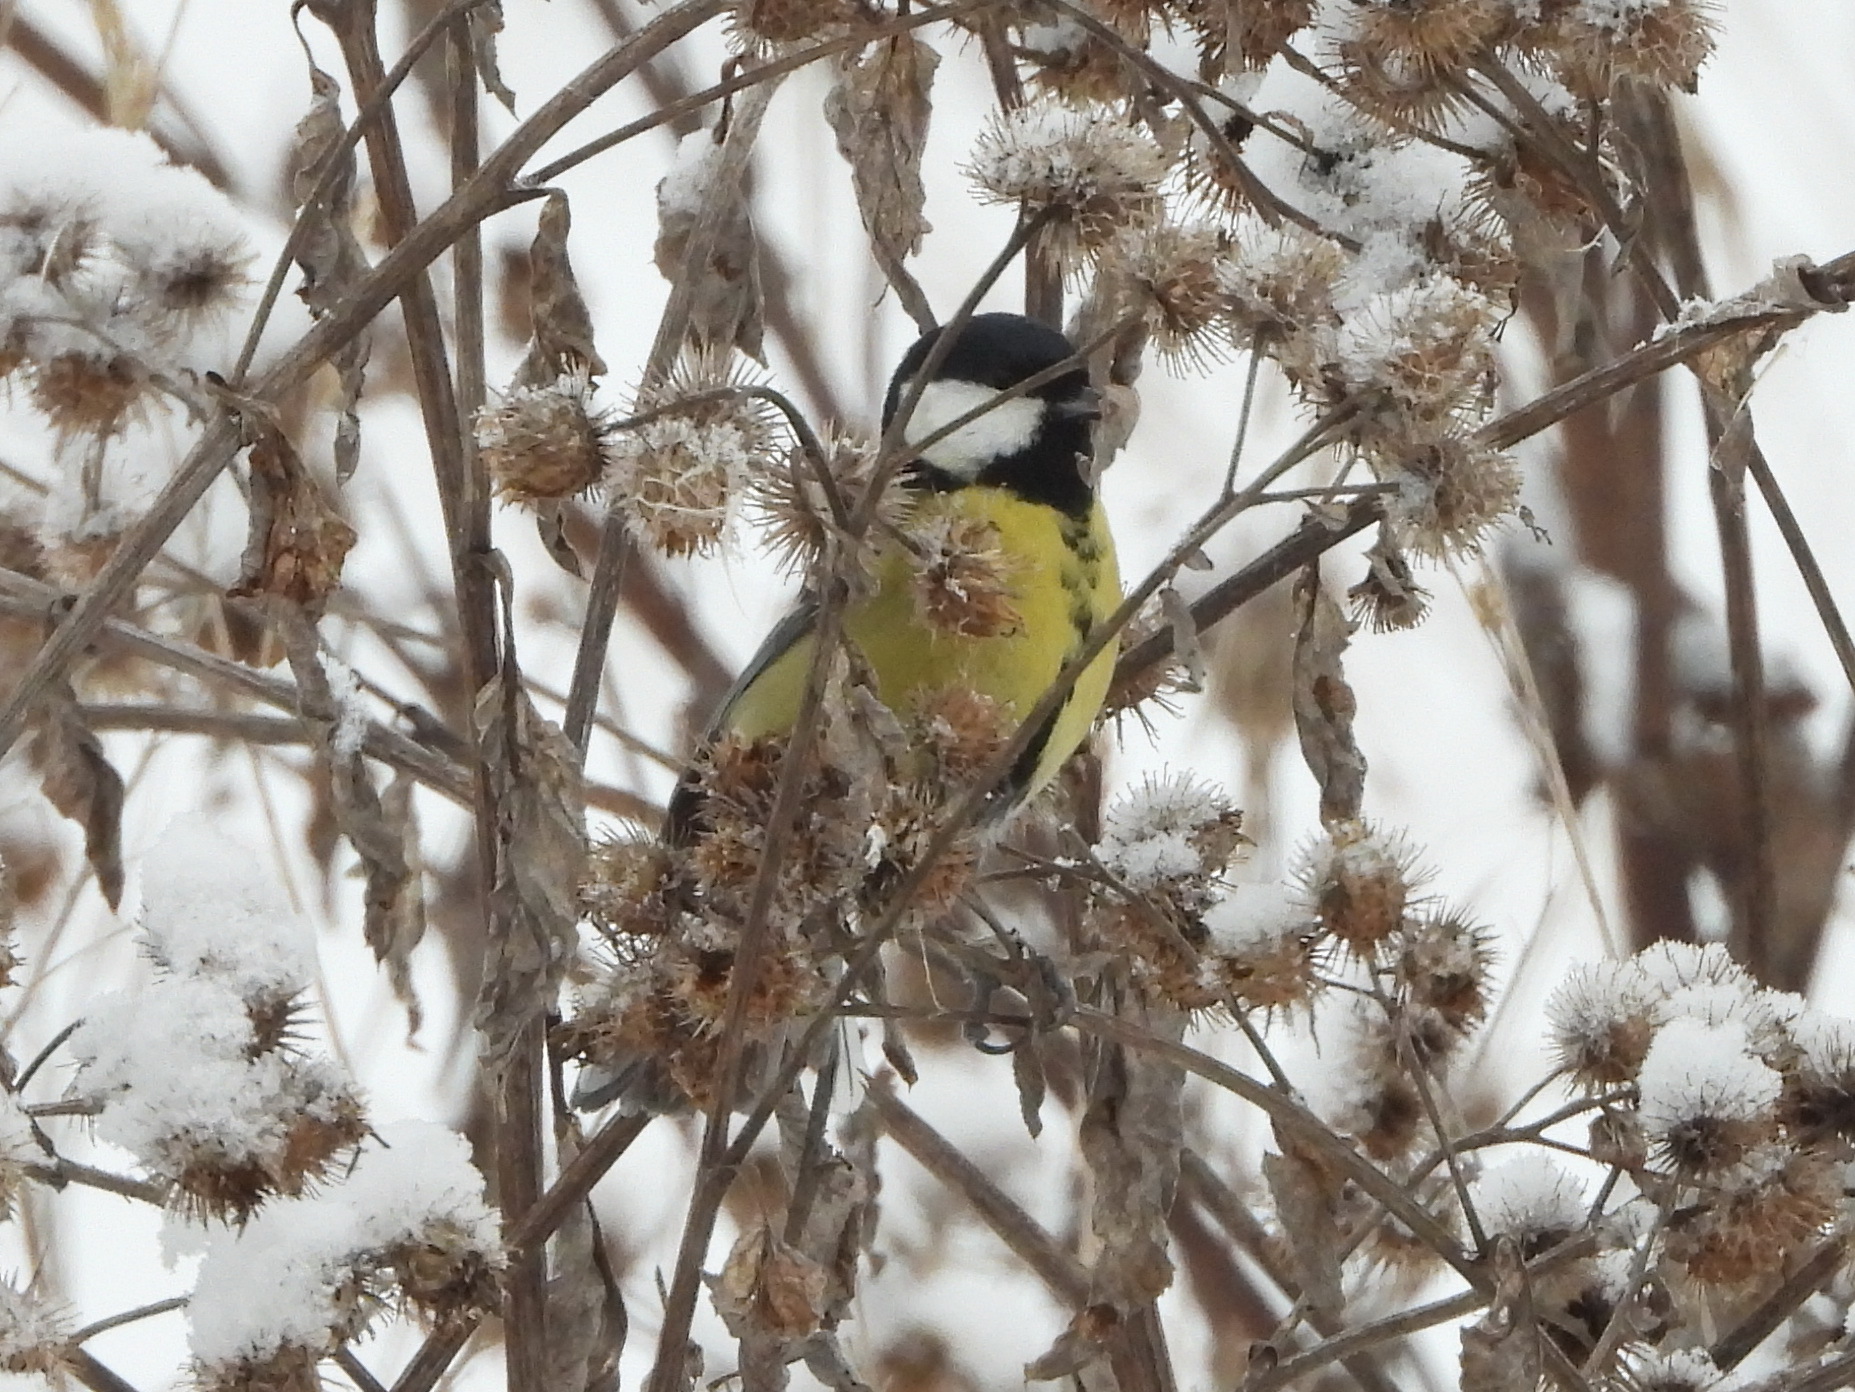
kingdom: Animalia
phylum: Chordata
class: Aves
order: Passeriformes
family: Paridae
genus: Parus
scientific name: Parus major
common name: Great tit
